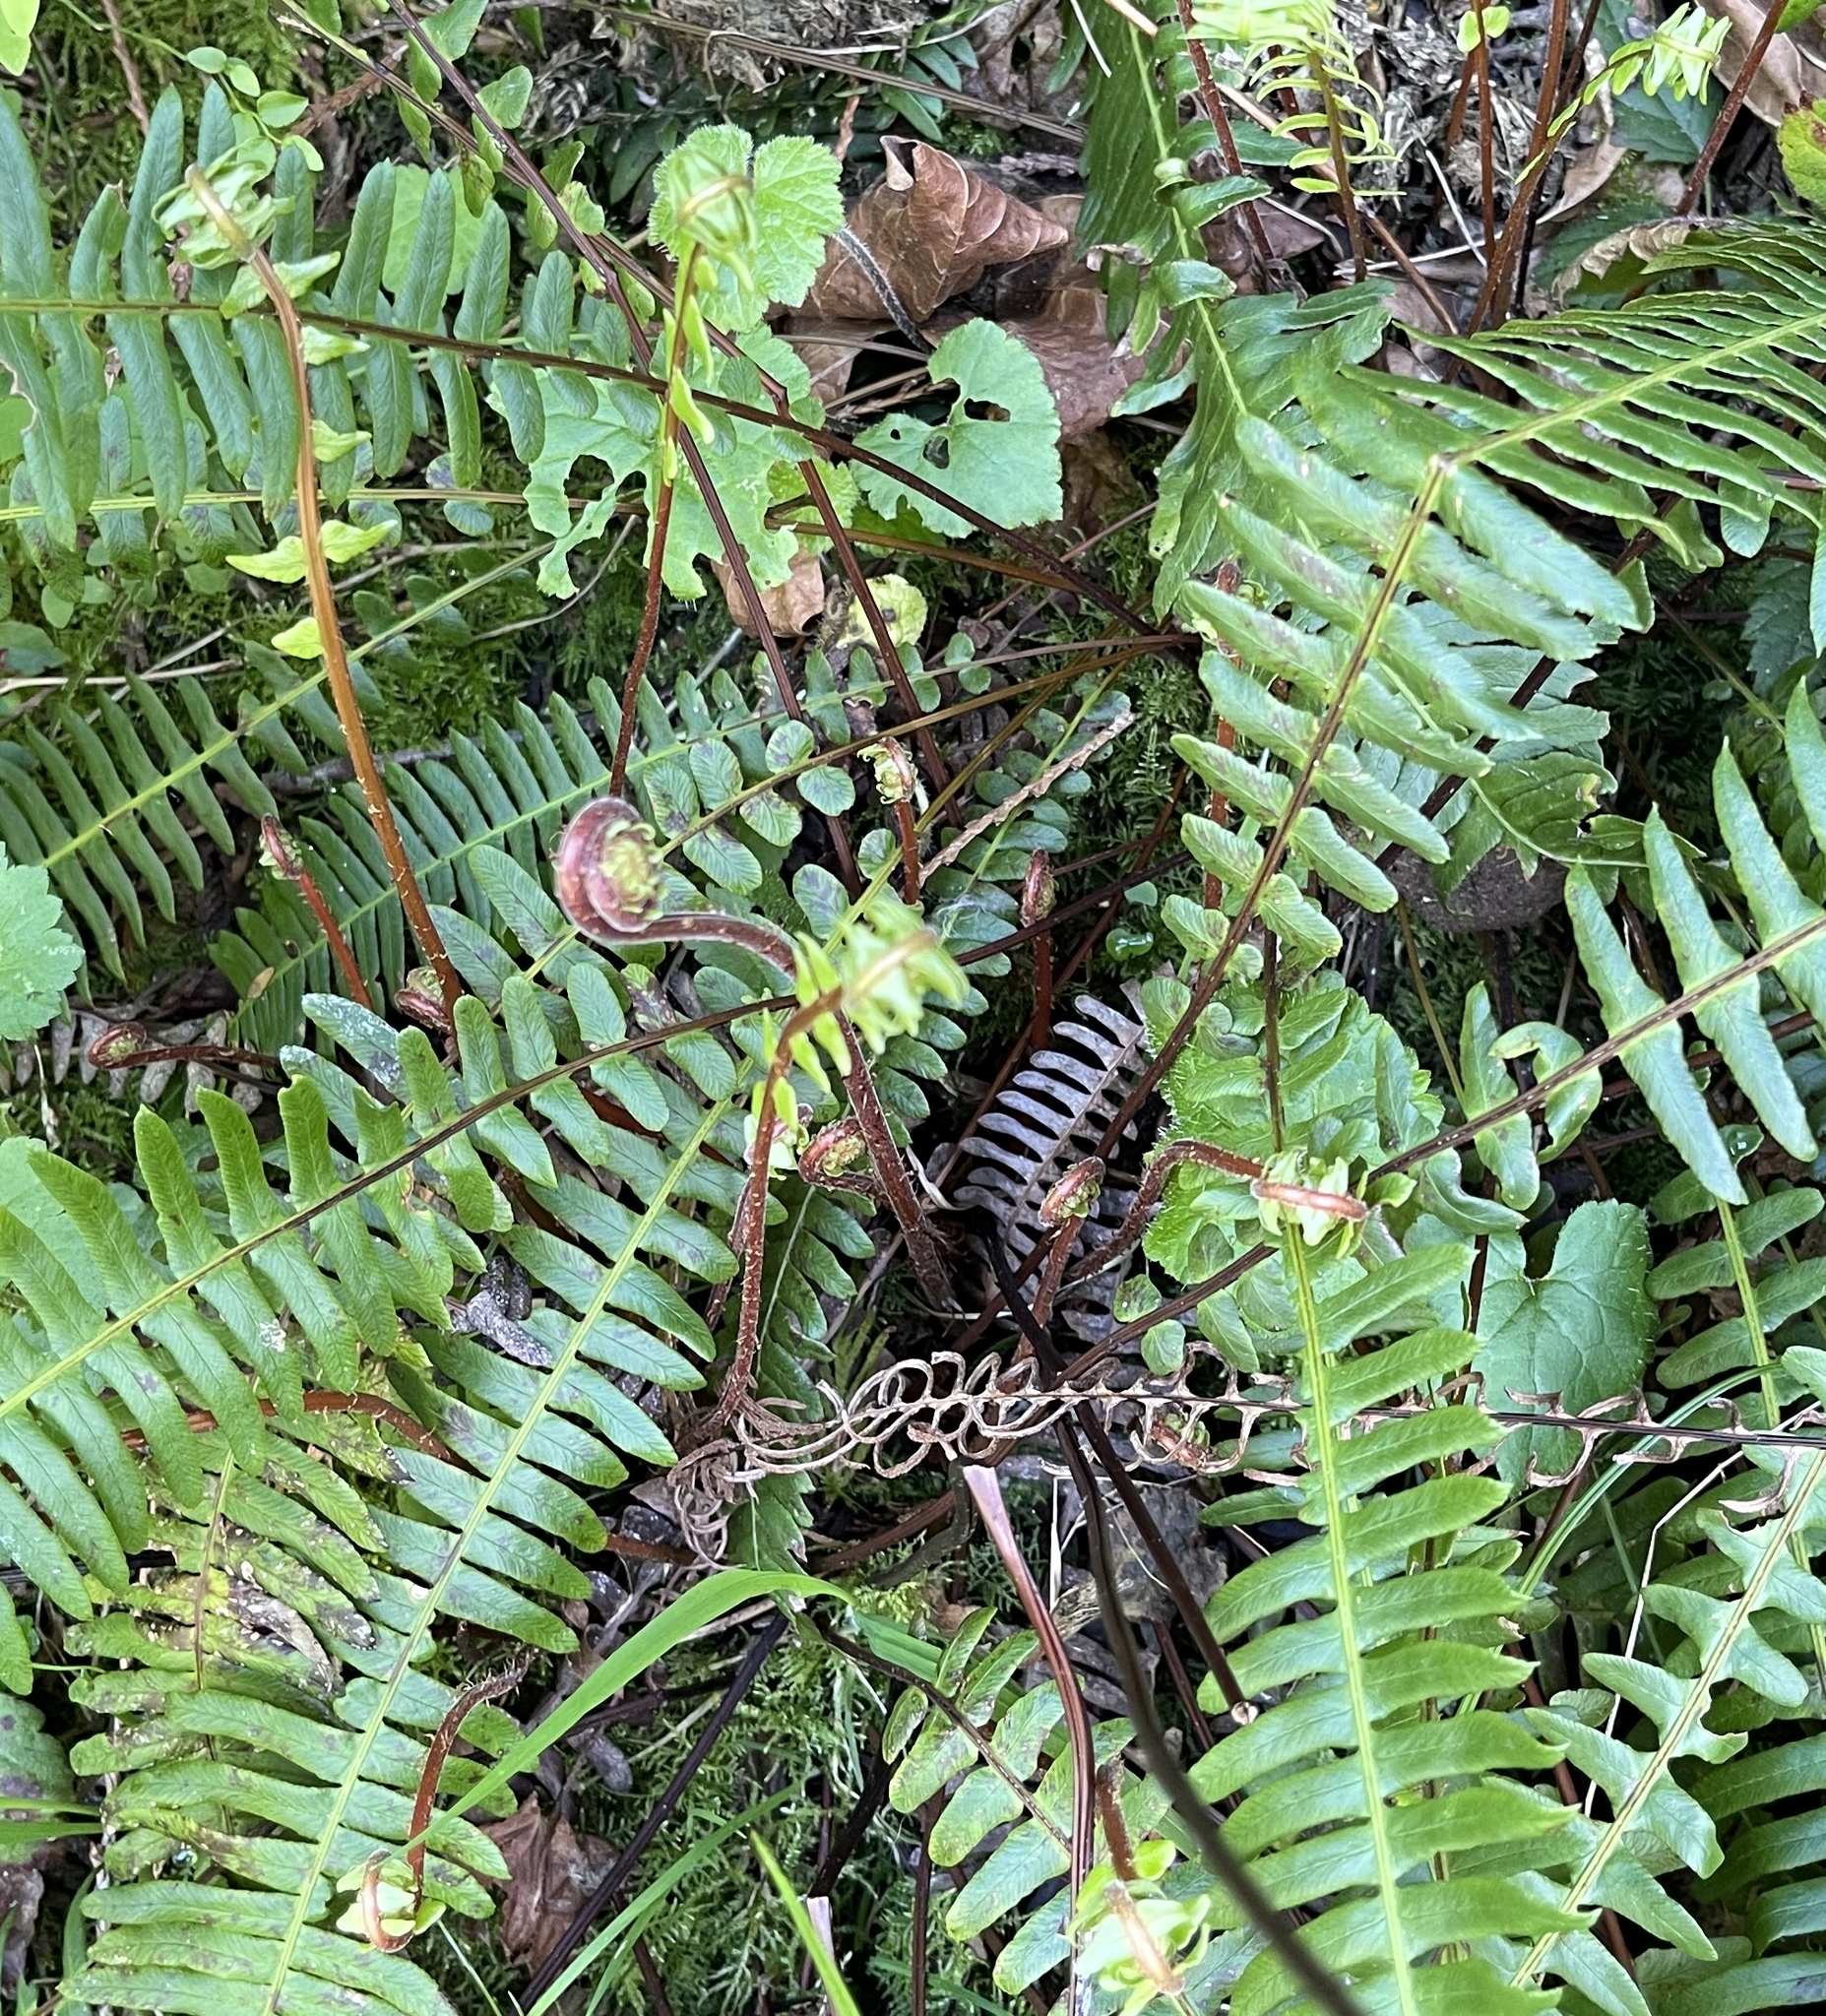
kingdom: Plantae
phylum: Tracheophyta
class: Polypodiopsida
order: Polypodiales
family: Blechnaceae
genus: Struthiopteris
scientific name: Struthiopteris spicant
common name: Deer fern
